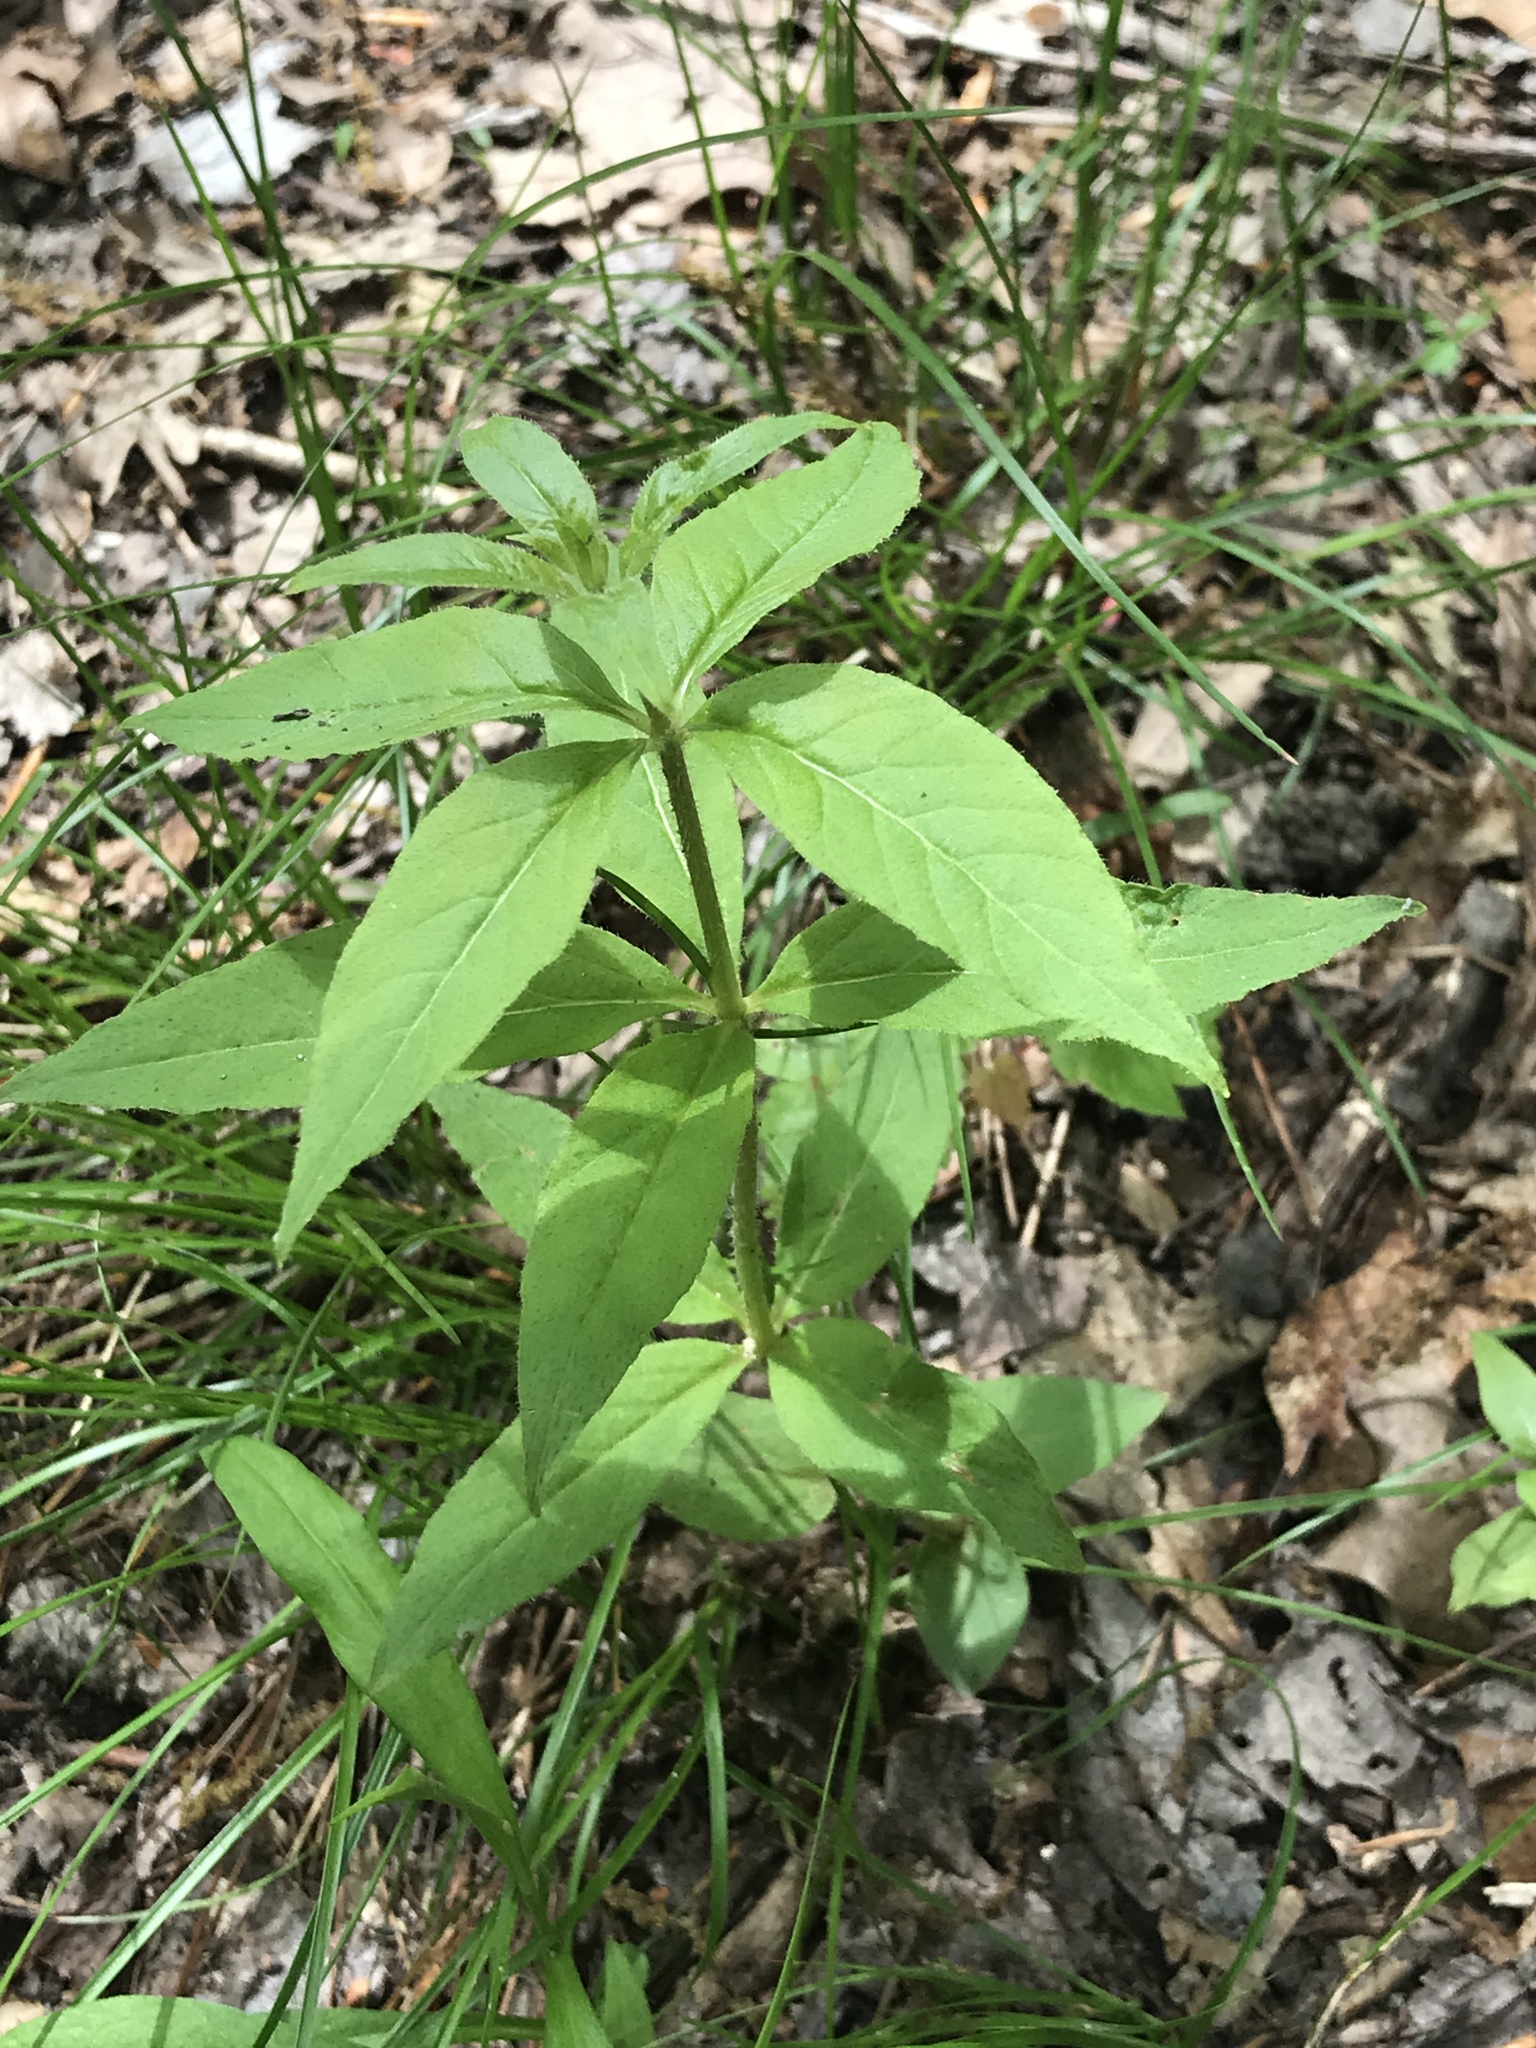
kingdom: Plantae
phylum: Tracheophyta
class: Magnoliopsida
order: Ericales
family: Primulaceae
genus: Lysimachia
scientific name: Lysimachia quadrifolia
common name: Whorled loosestrife
